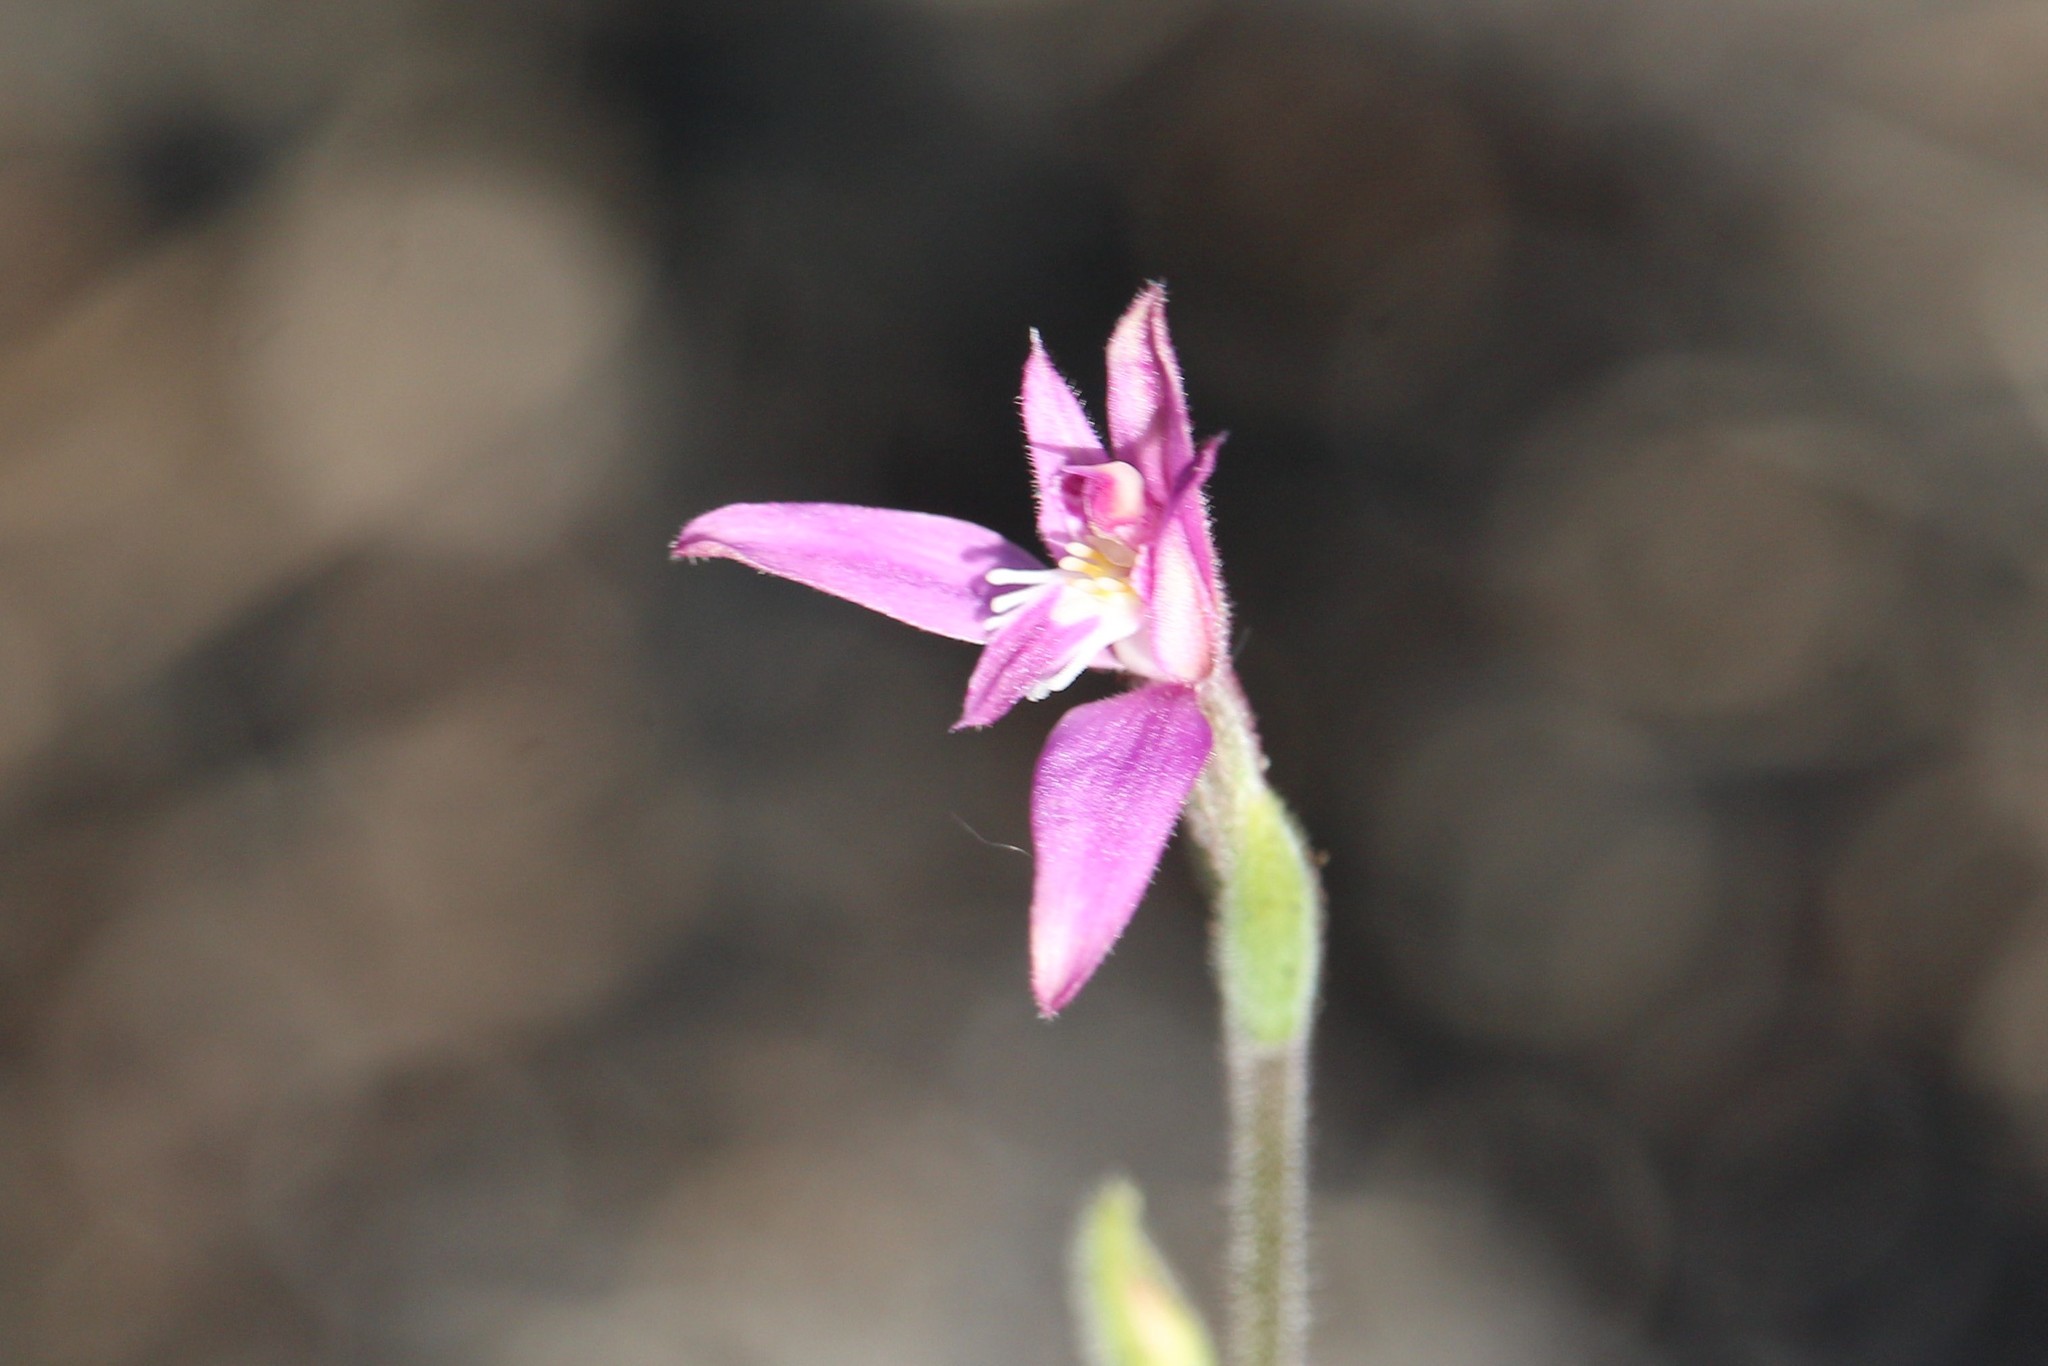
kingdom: Plantae
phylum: Tracheophyta
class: Liliopsida
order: Asparagales
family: Orchidaceae
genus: Caladenia
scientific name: Caladenia latifolia
